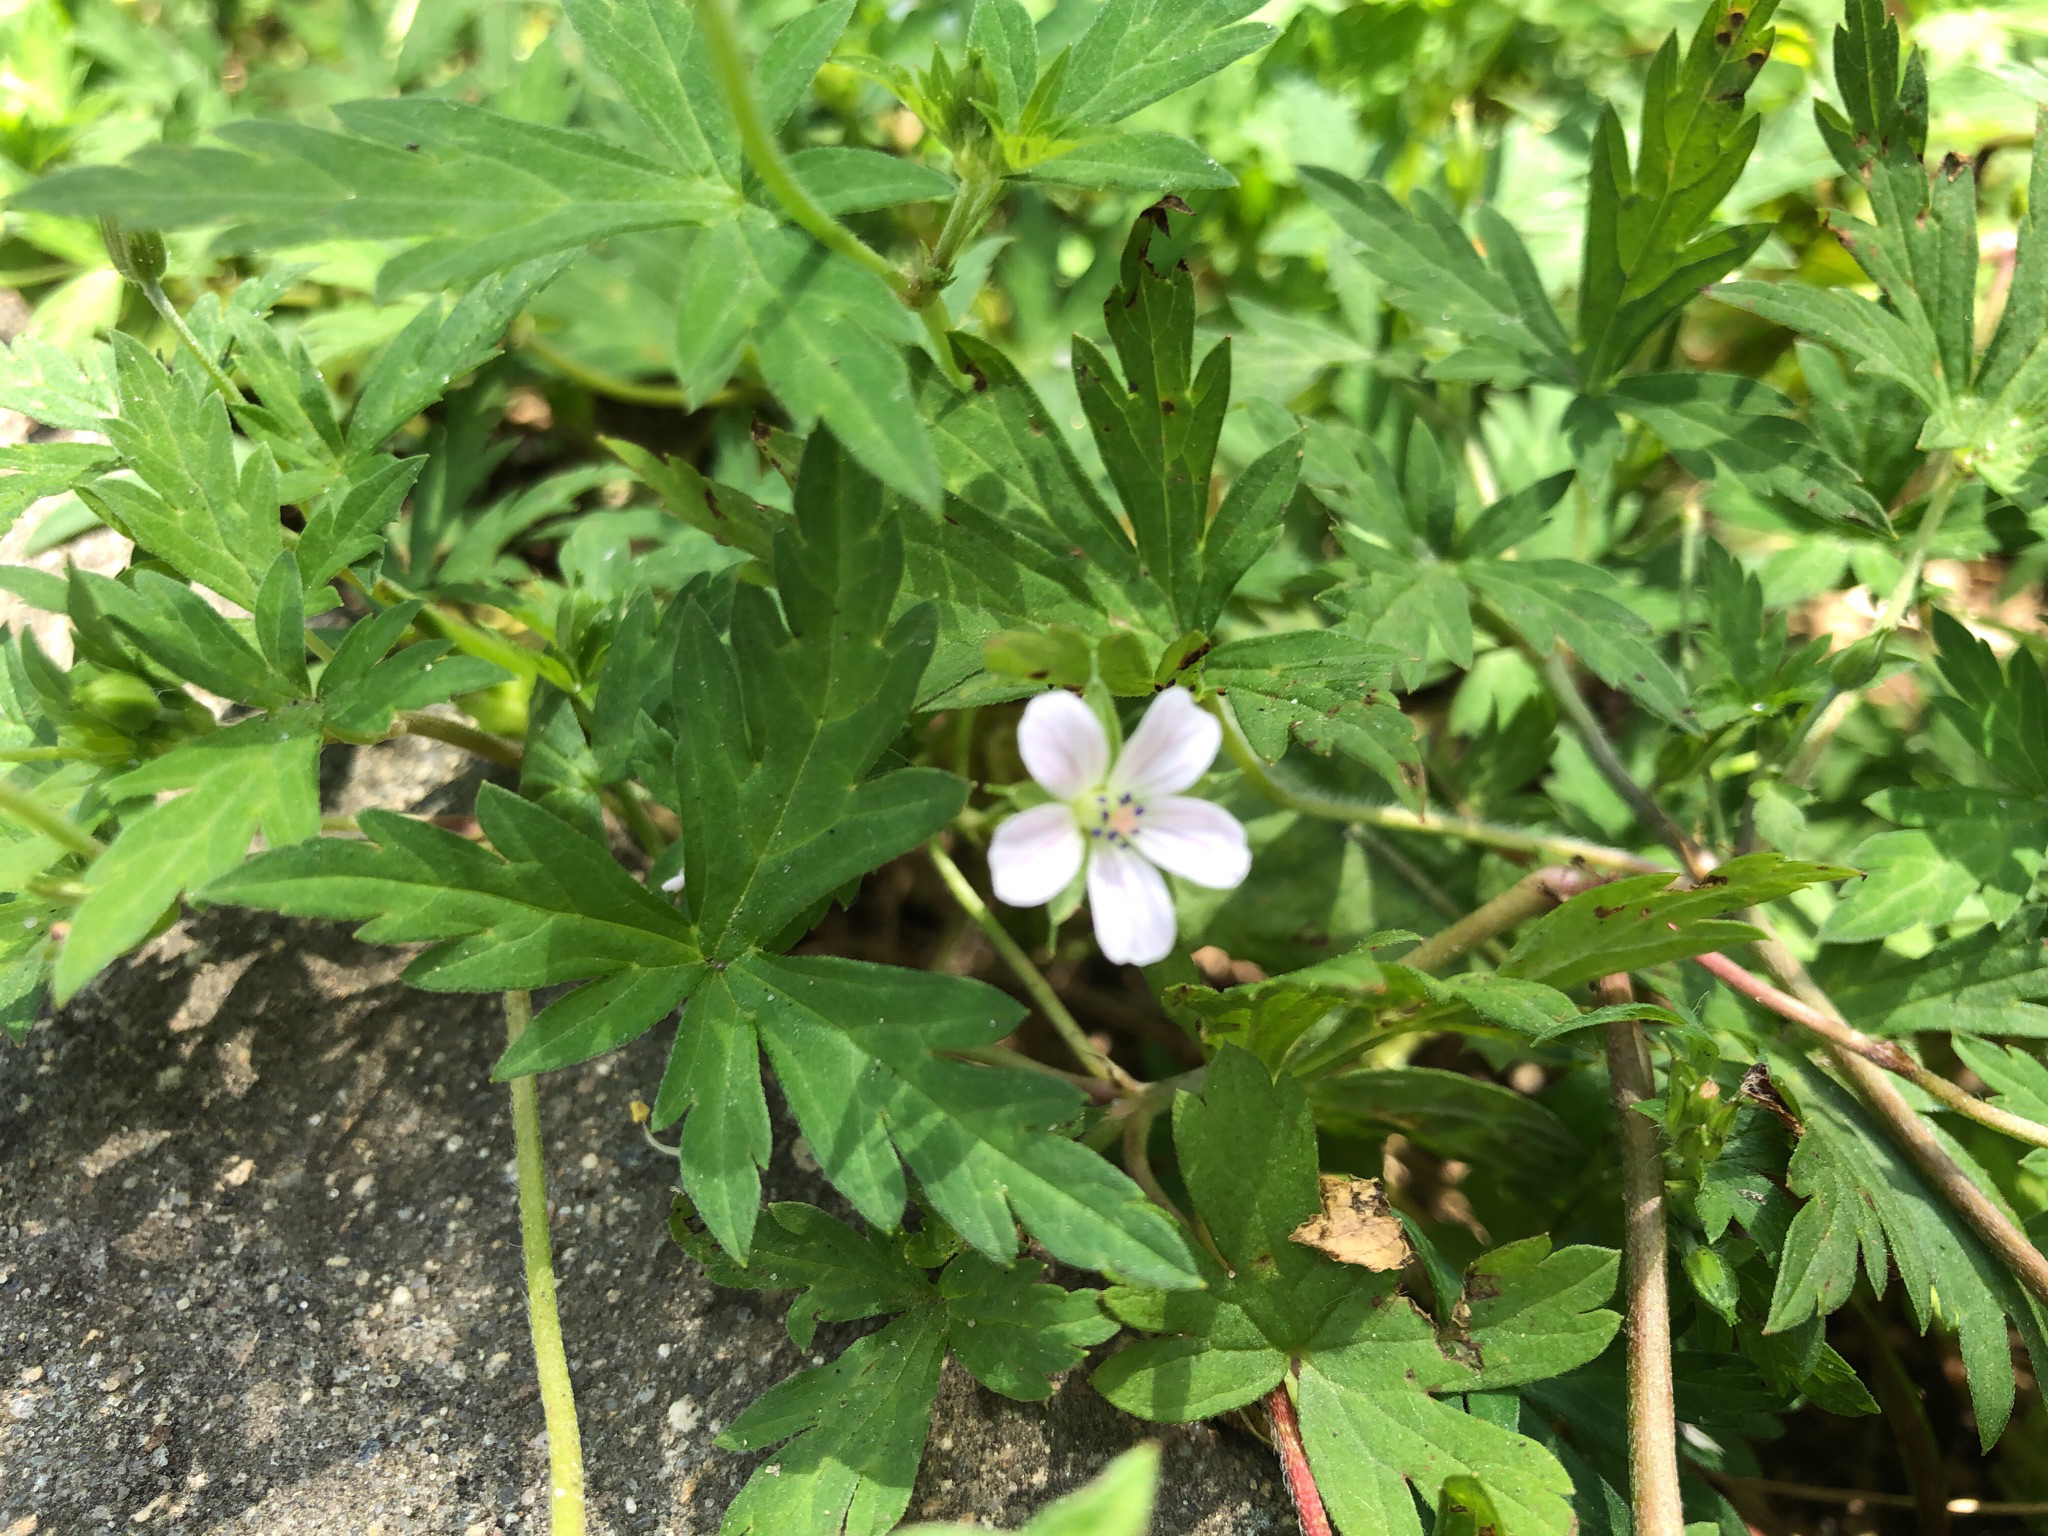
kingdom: Plantae
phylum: Tracheophyta
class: Magnoliopsida
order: Geraniales
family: Geraniaceae
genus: Geranium
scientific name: Geranium sibiricum
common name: Siberian crane's-bill
